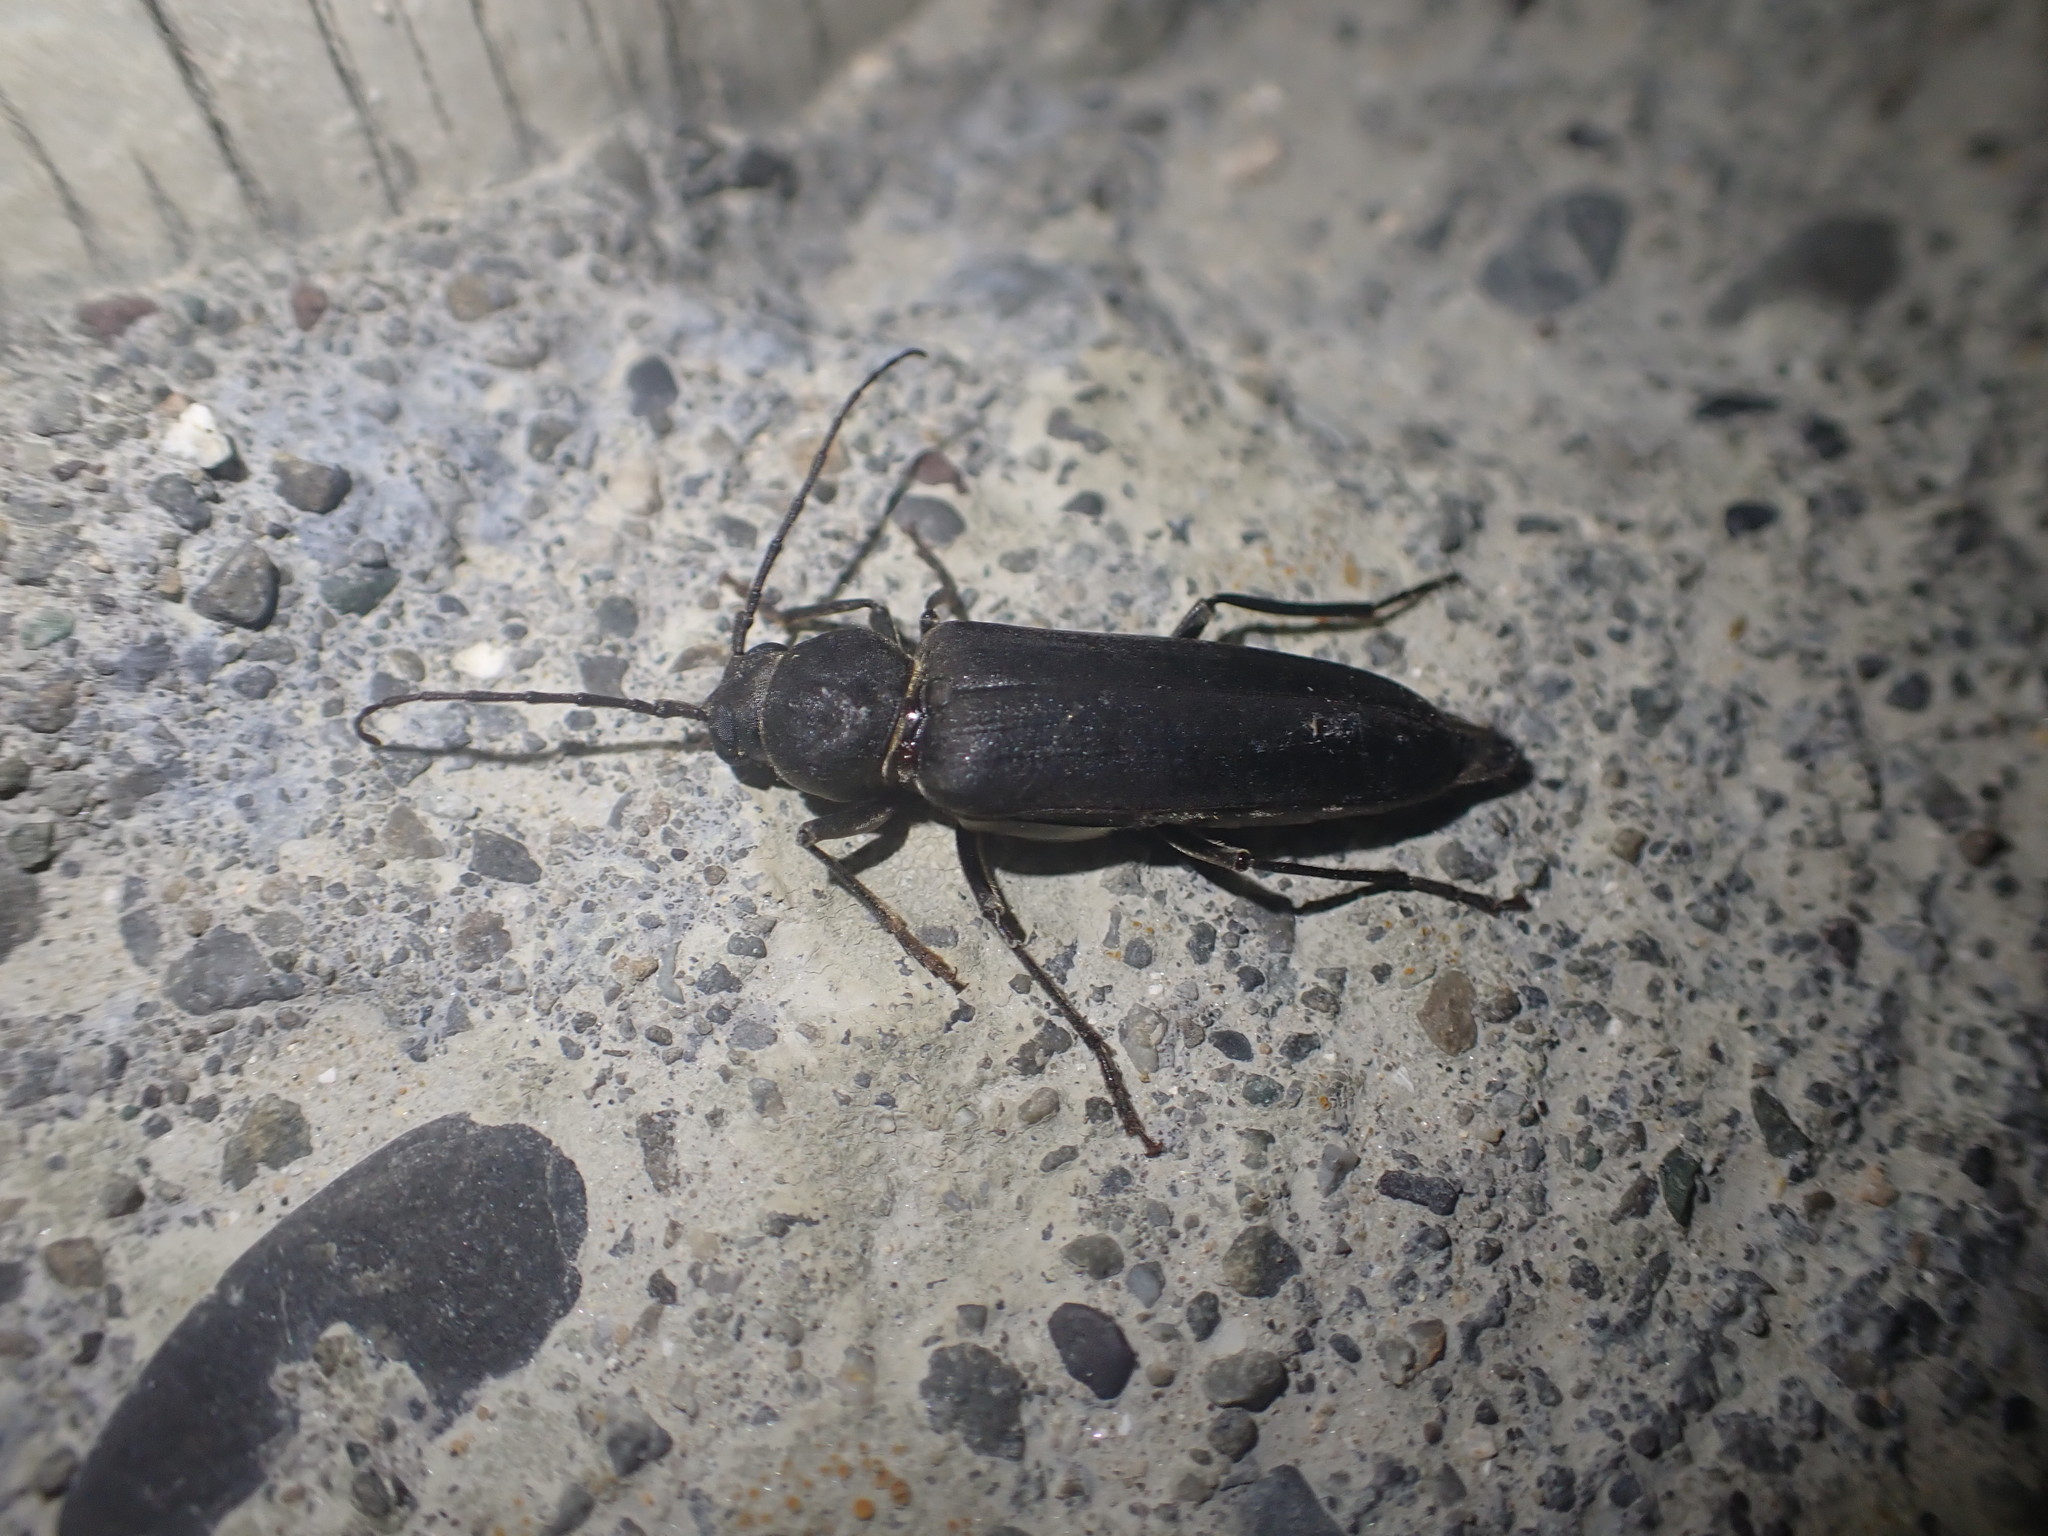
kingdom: Animalia
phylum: Arthropoda
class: Insecta
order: Coleoptera
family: Cerambycidae
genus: Arhopalus
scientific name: Arhopalus ferus
